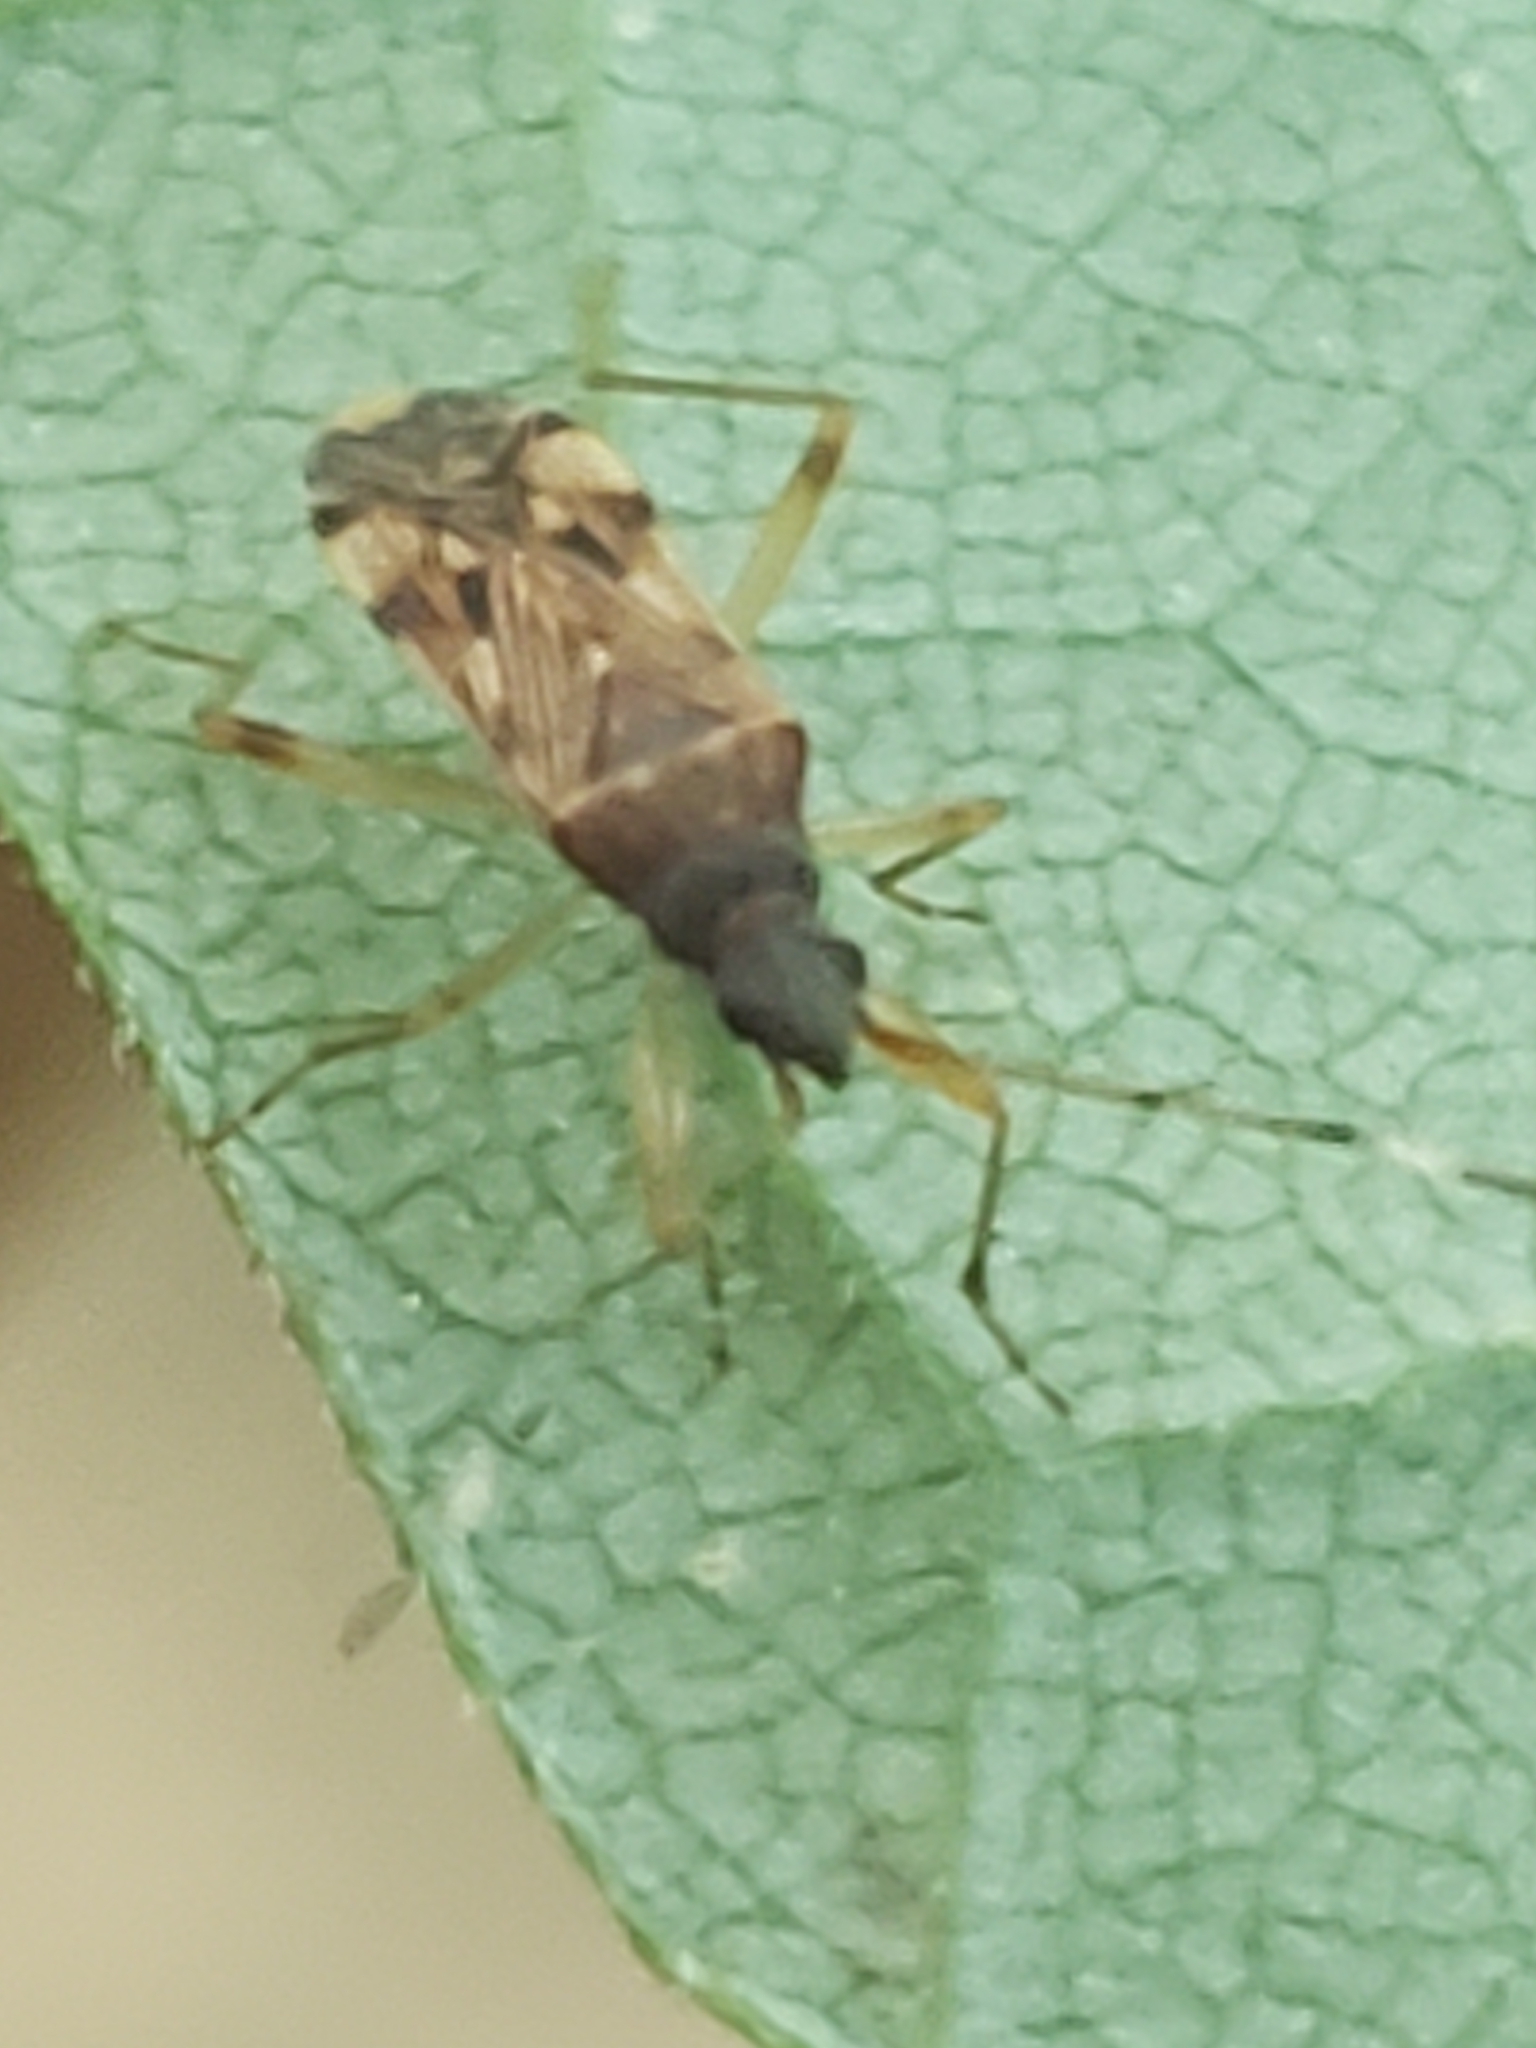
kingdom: Animalia
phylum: Arthropoda
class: Insecta
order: Hemiptera
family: Rhyparochromidae
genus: Ozophora
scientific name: Ozophora picturata
